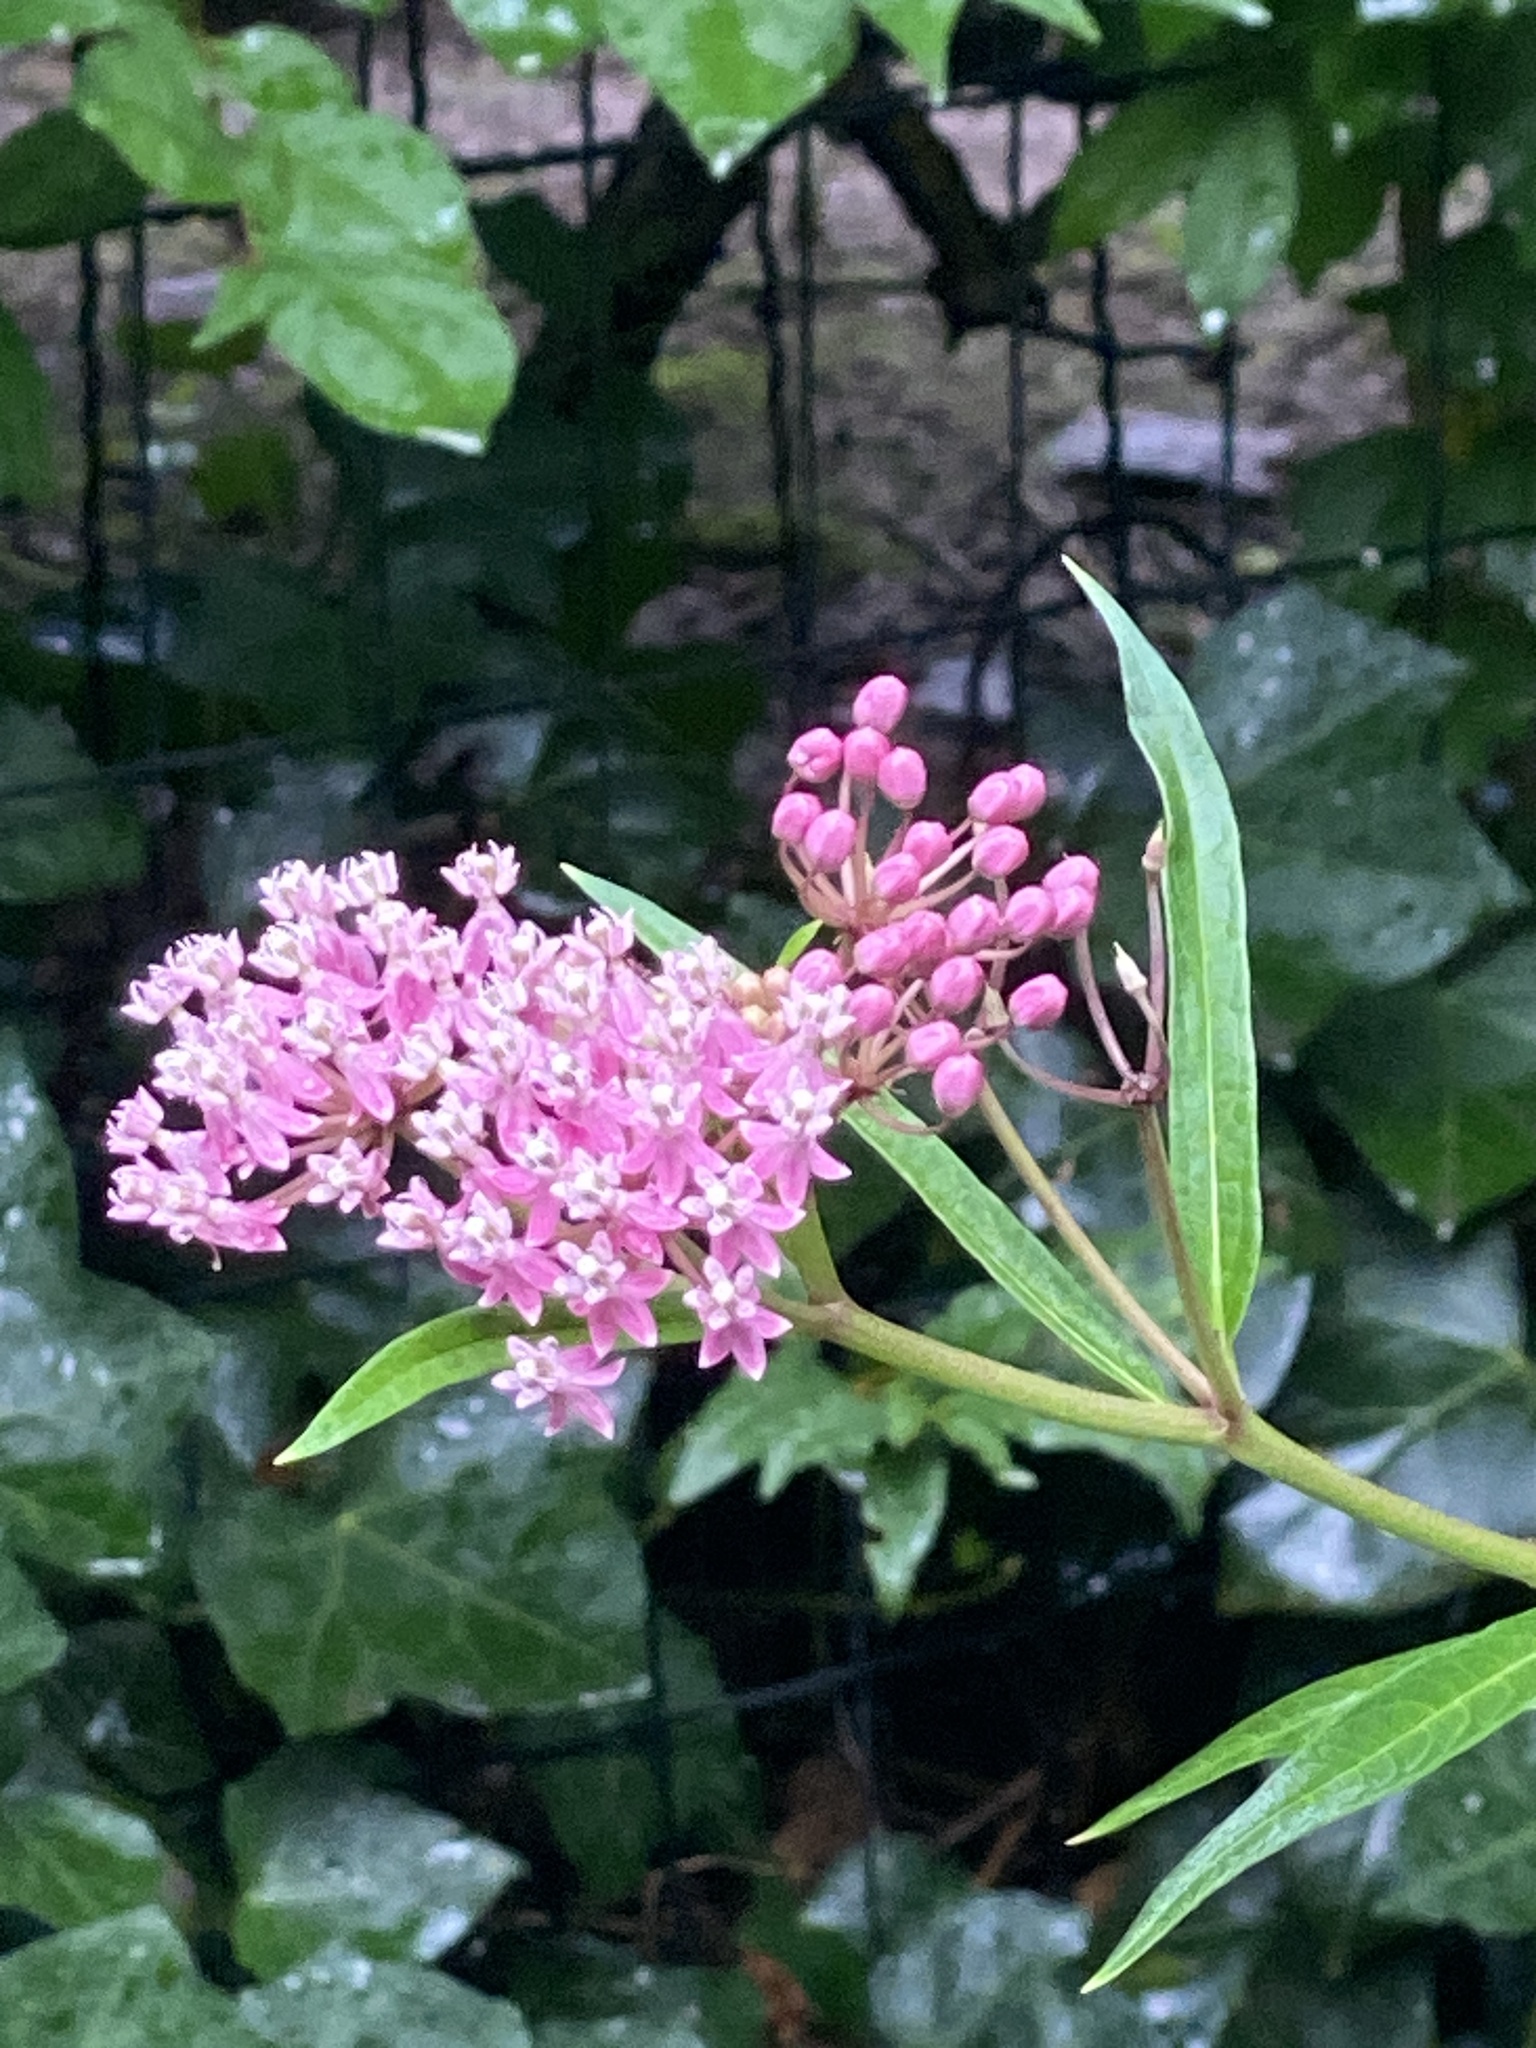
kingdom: Plantae
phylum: Tracheophyta
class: Magnoliopsida
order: Gentianales
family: Apocynaceae
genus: Asclepias
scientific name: Asclepias incarnata
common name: Swamp milkweed
